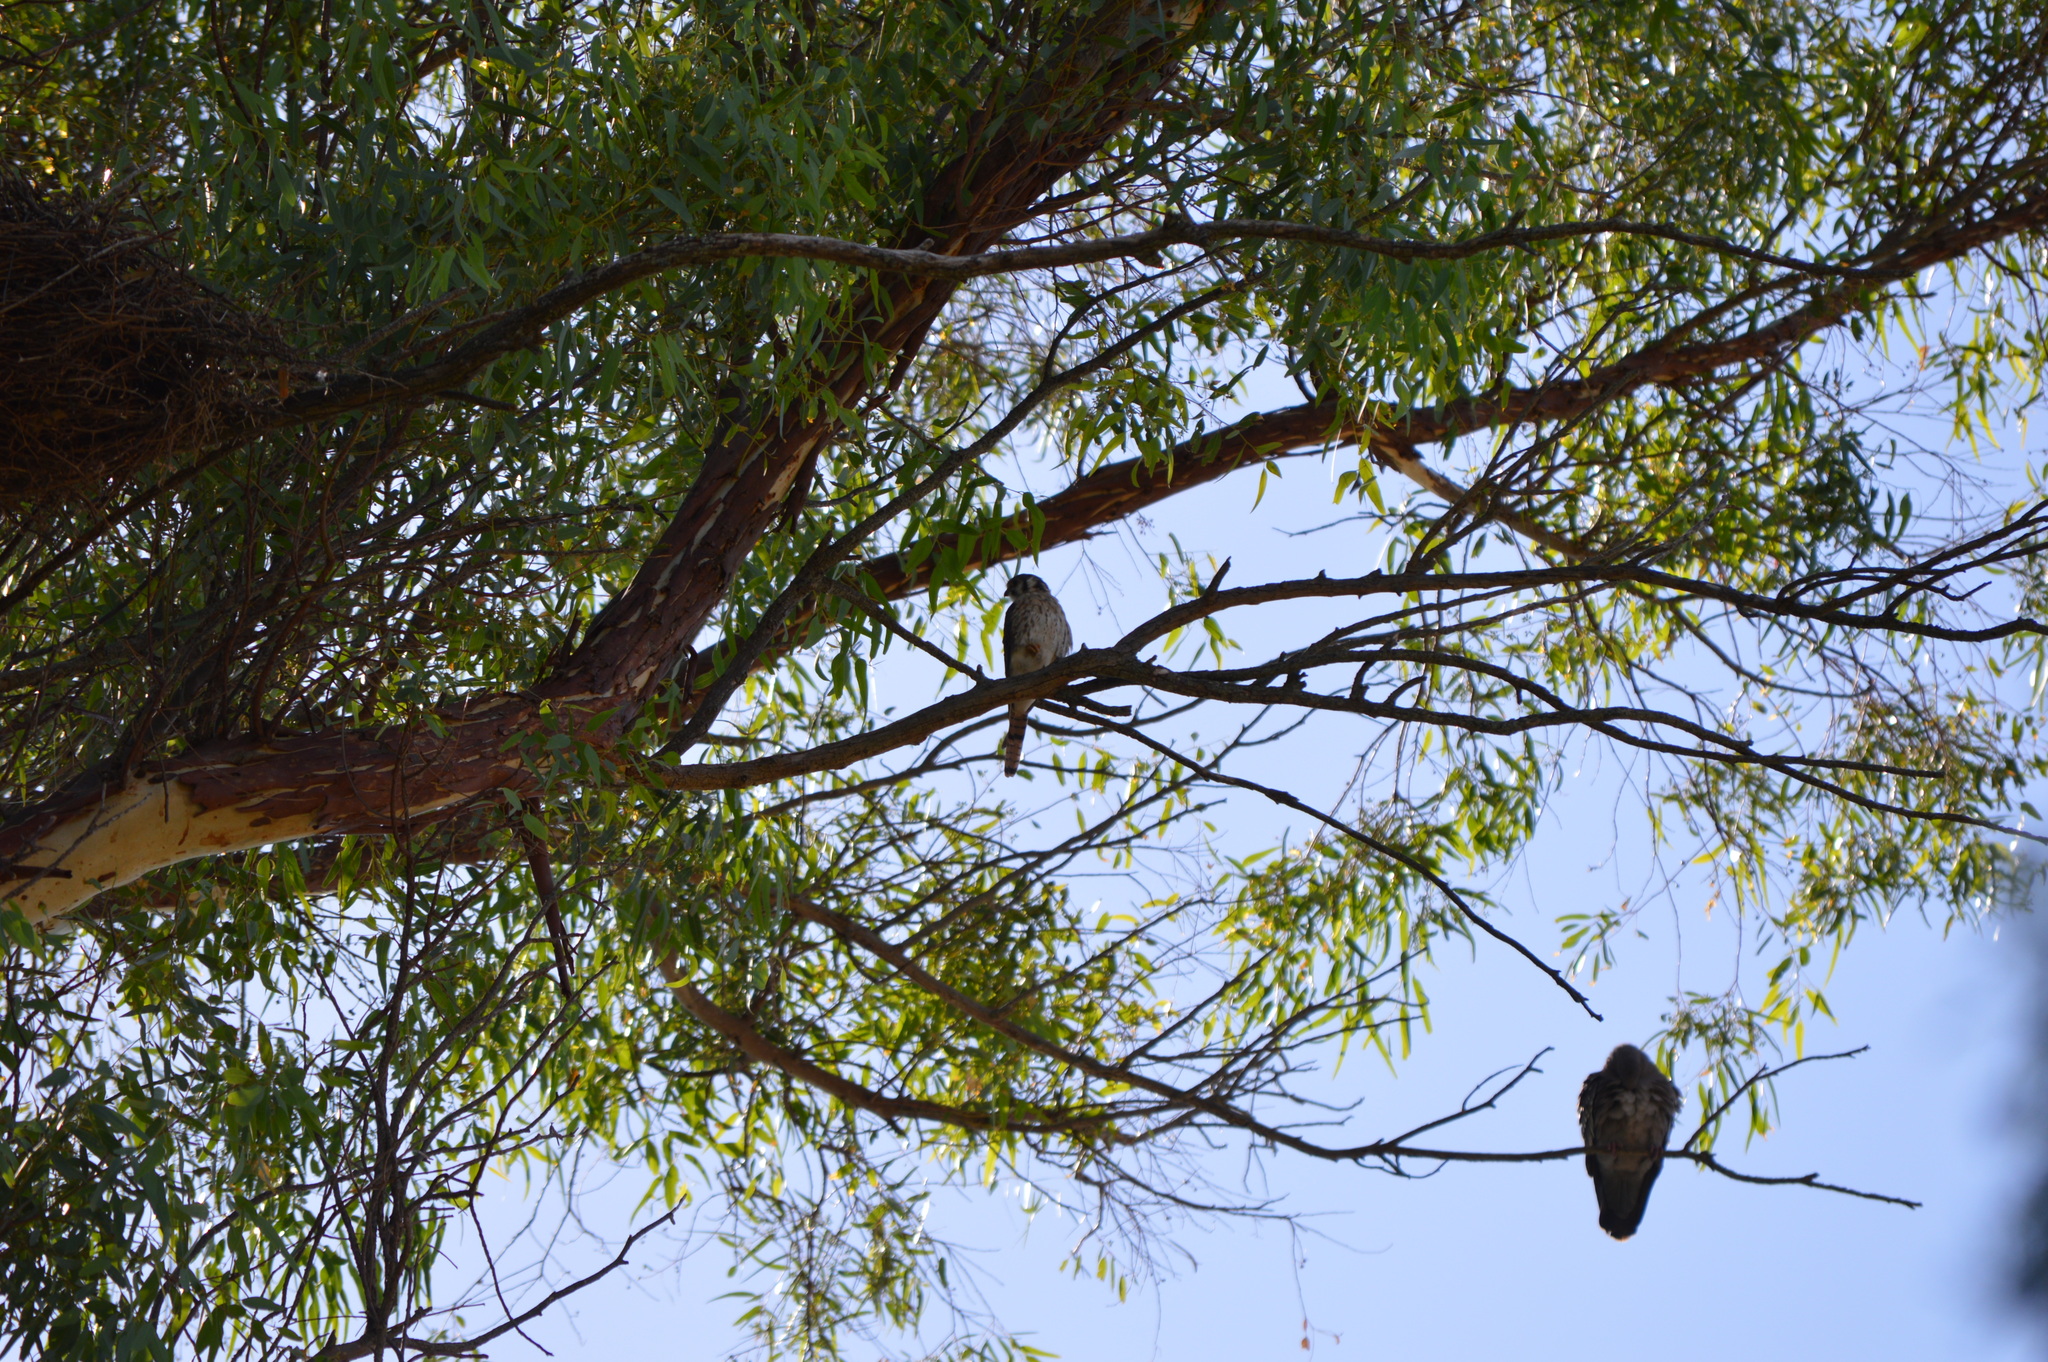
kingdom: Animalia
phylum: Chordata
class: Aves
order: Falconiformes
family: Falconidae
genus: Falco
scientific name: Falco sparverius
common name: American kestrel
